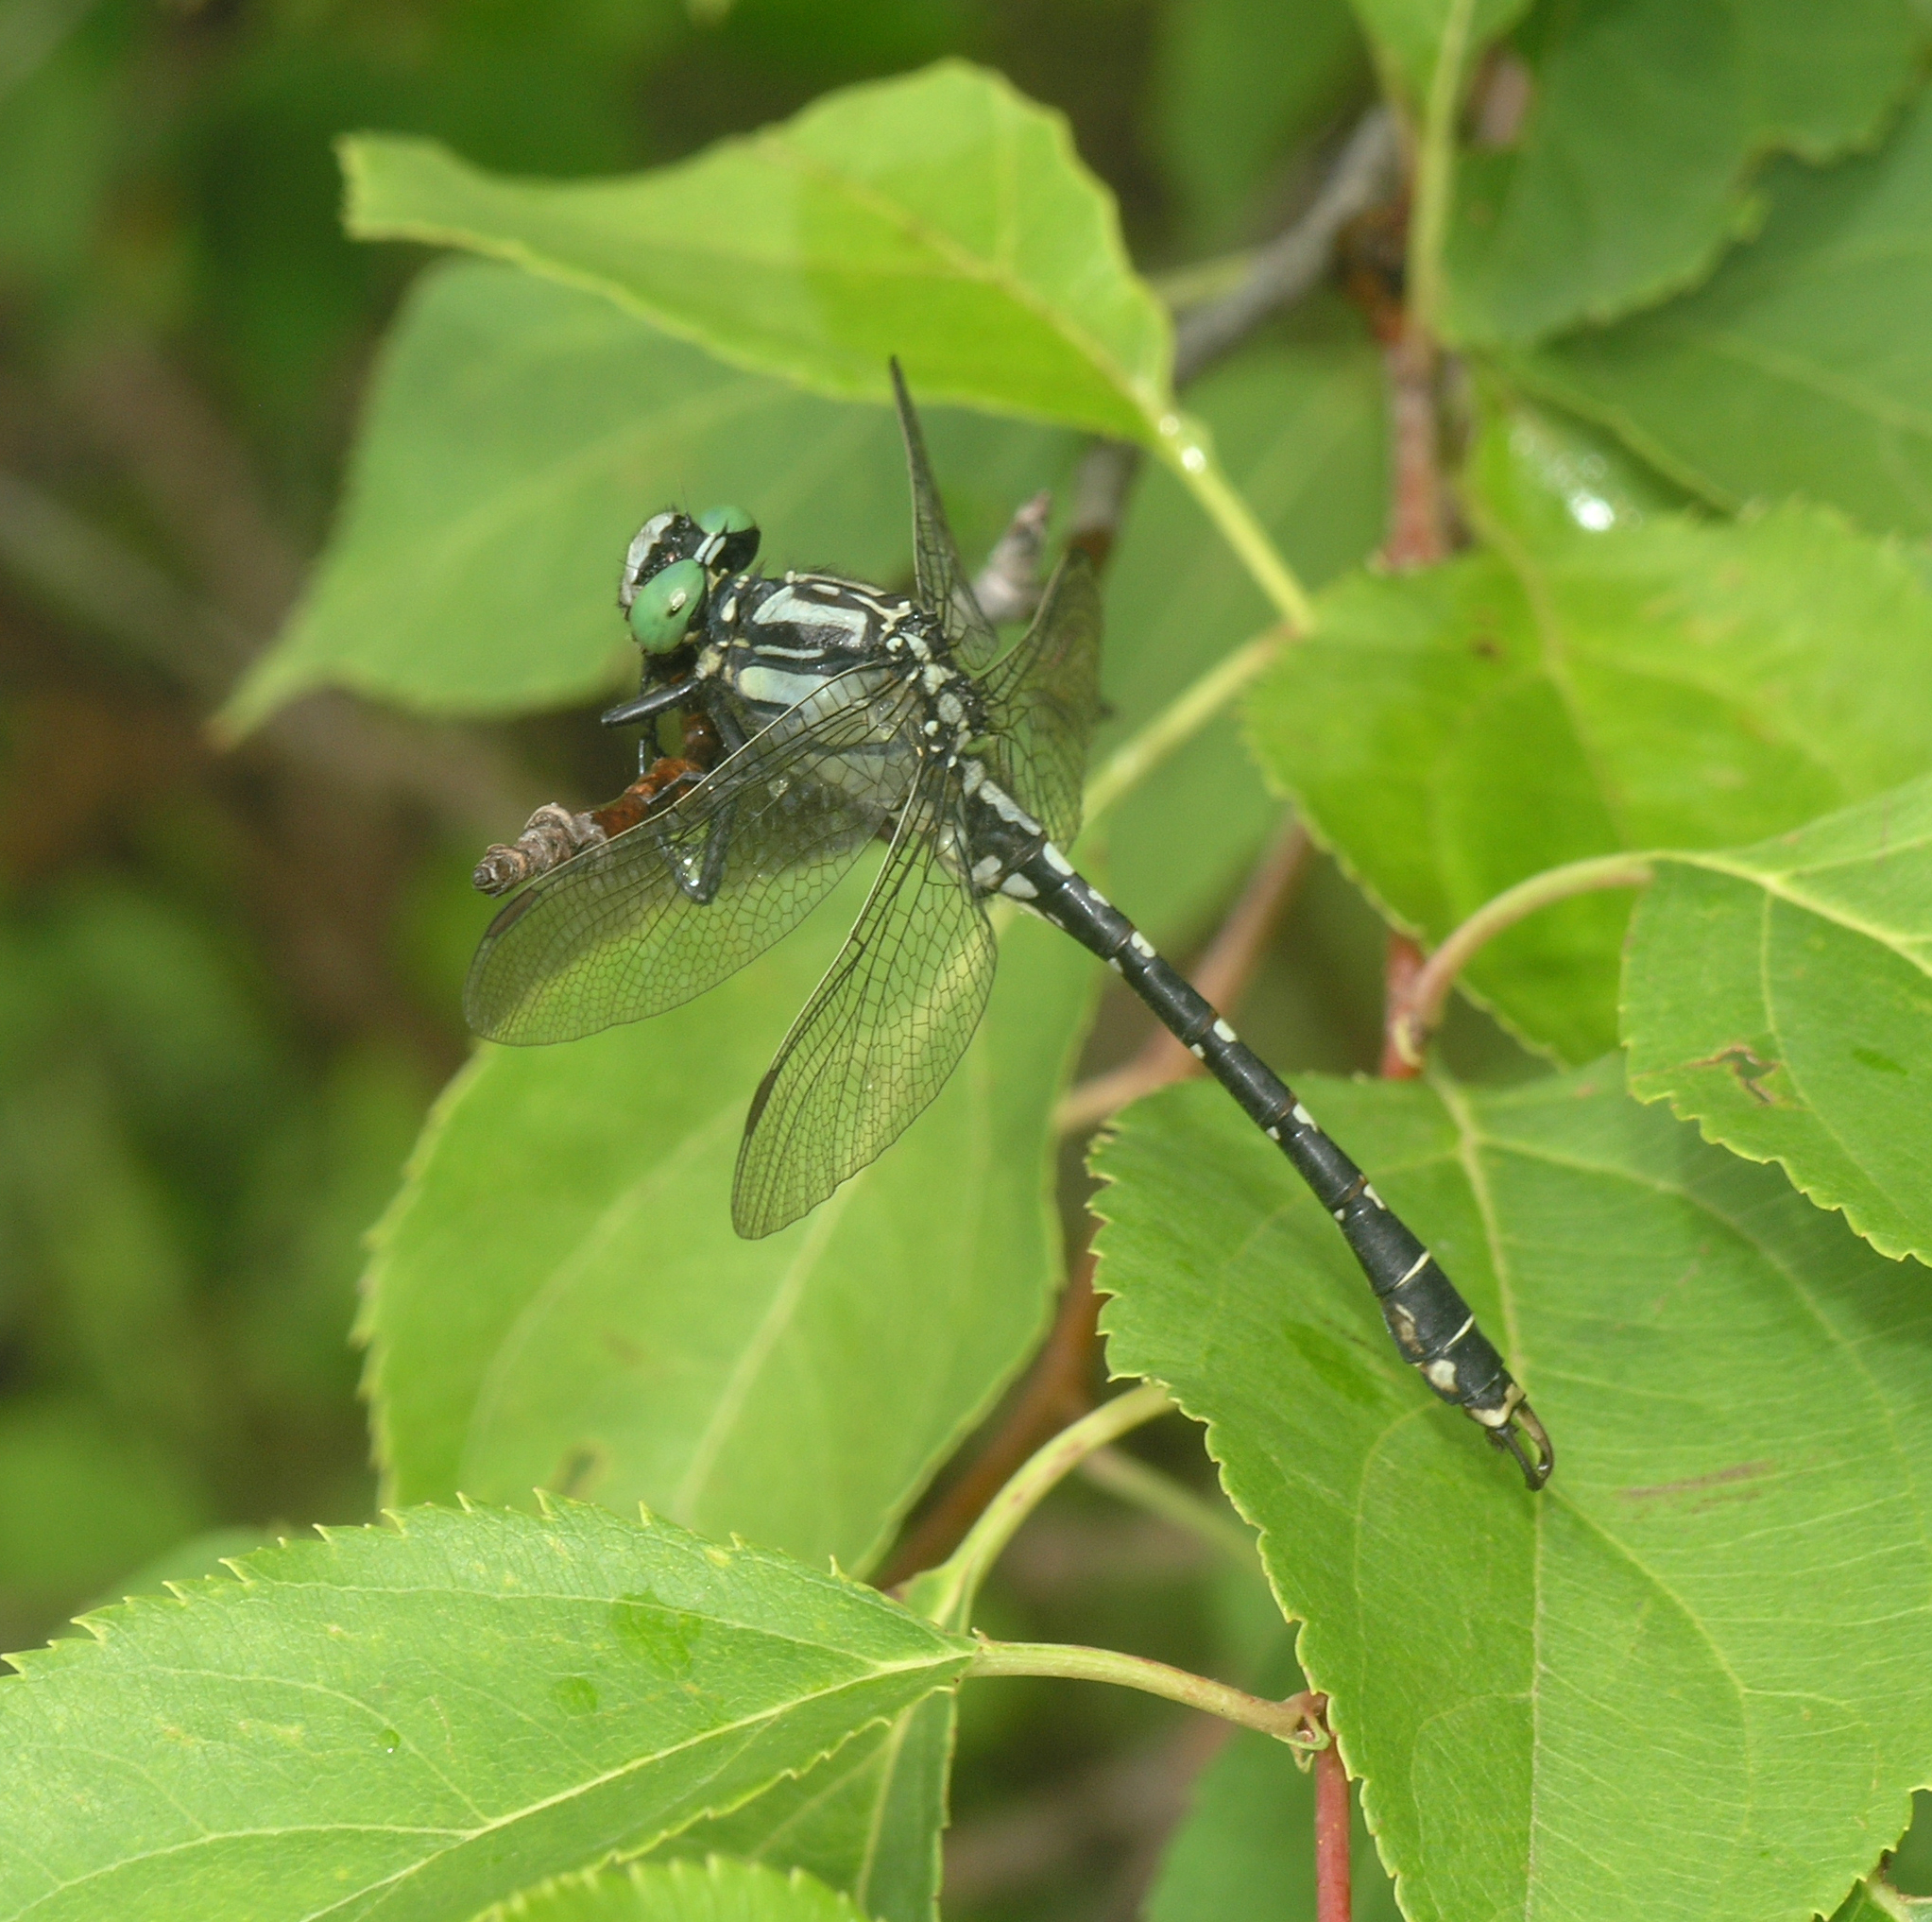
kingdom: Animalia
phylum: Arthropoda
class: Insecta
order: Odonata
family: Gomphidae
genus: Nihonogomphus
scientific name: Nihonogomphus ruptus
